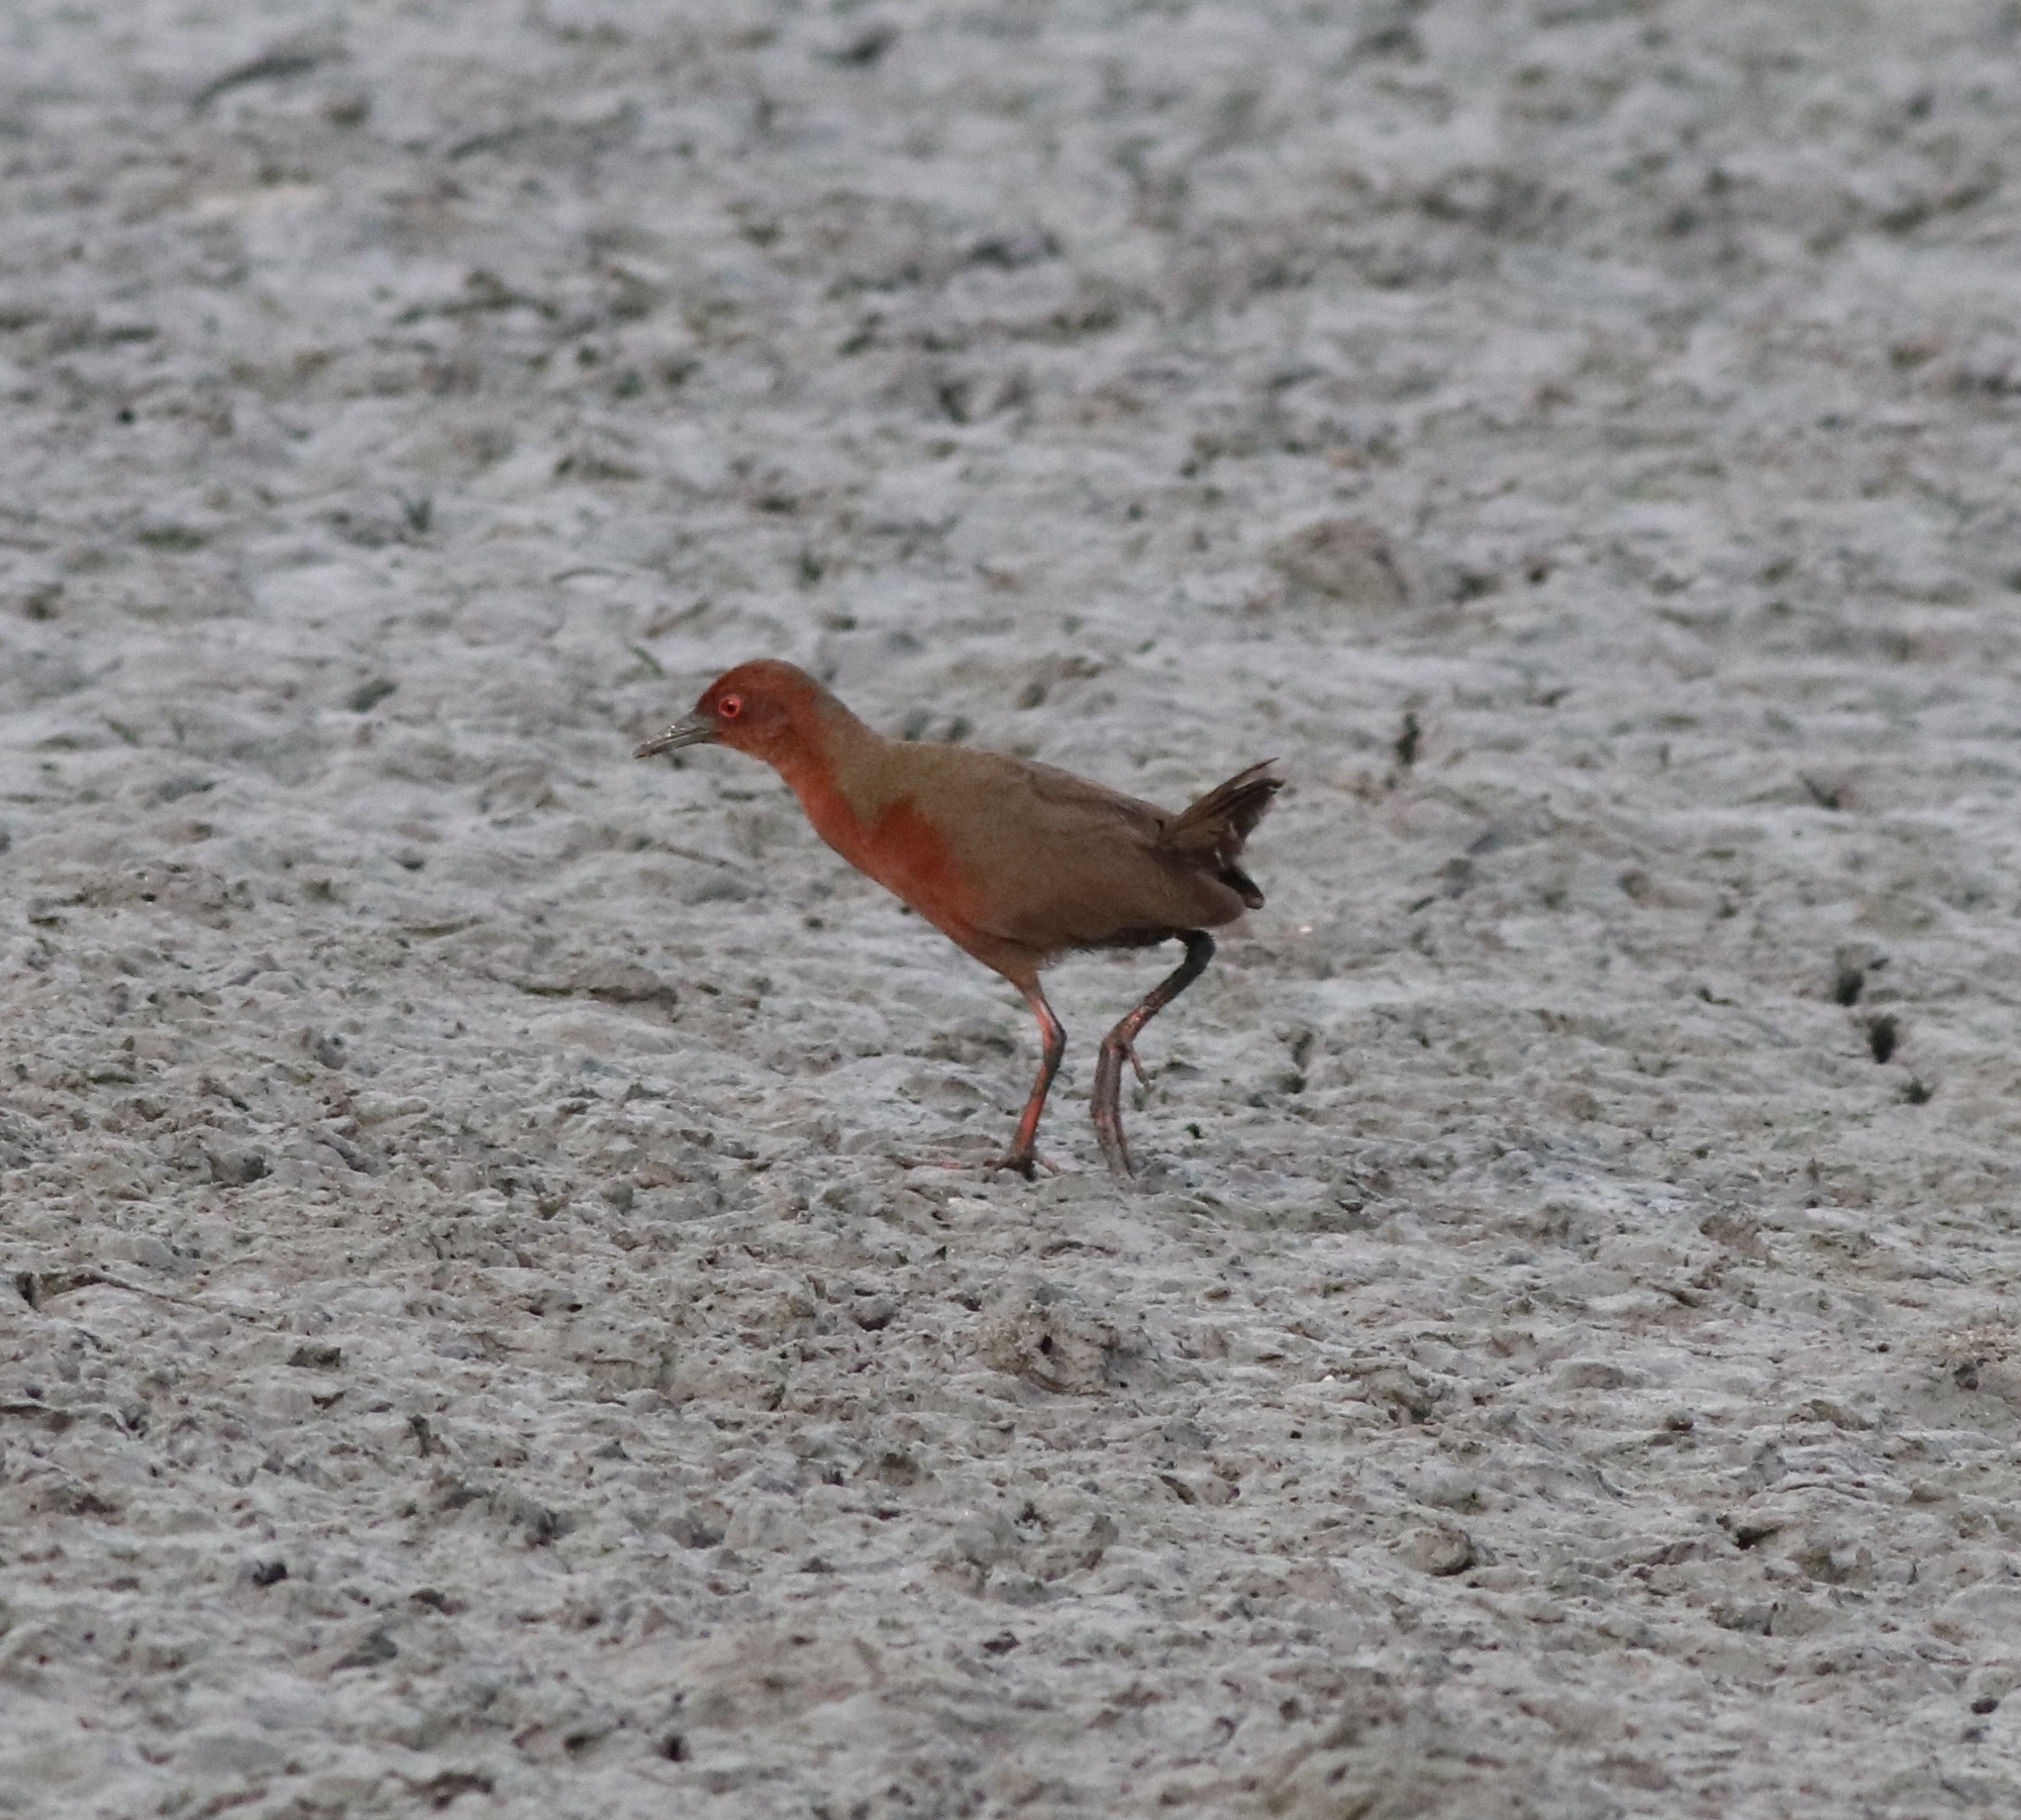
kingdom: Animalia
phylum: Chordata
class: Aves
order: Gruiformes
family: Rallidae
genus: Porzana
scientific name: Porzana fusca
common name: Ruddy-breasted crake
